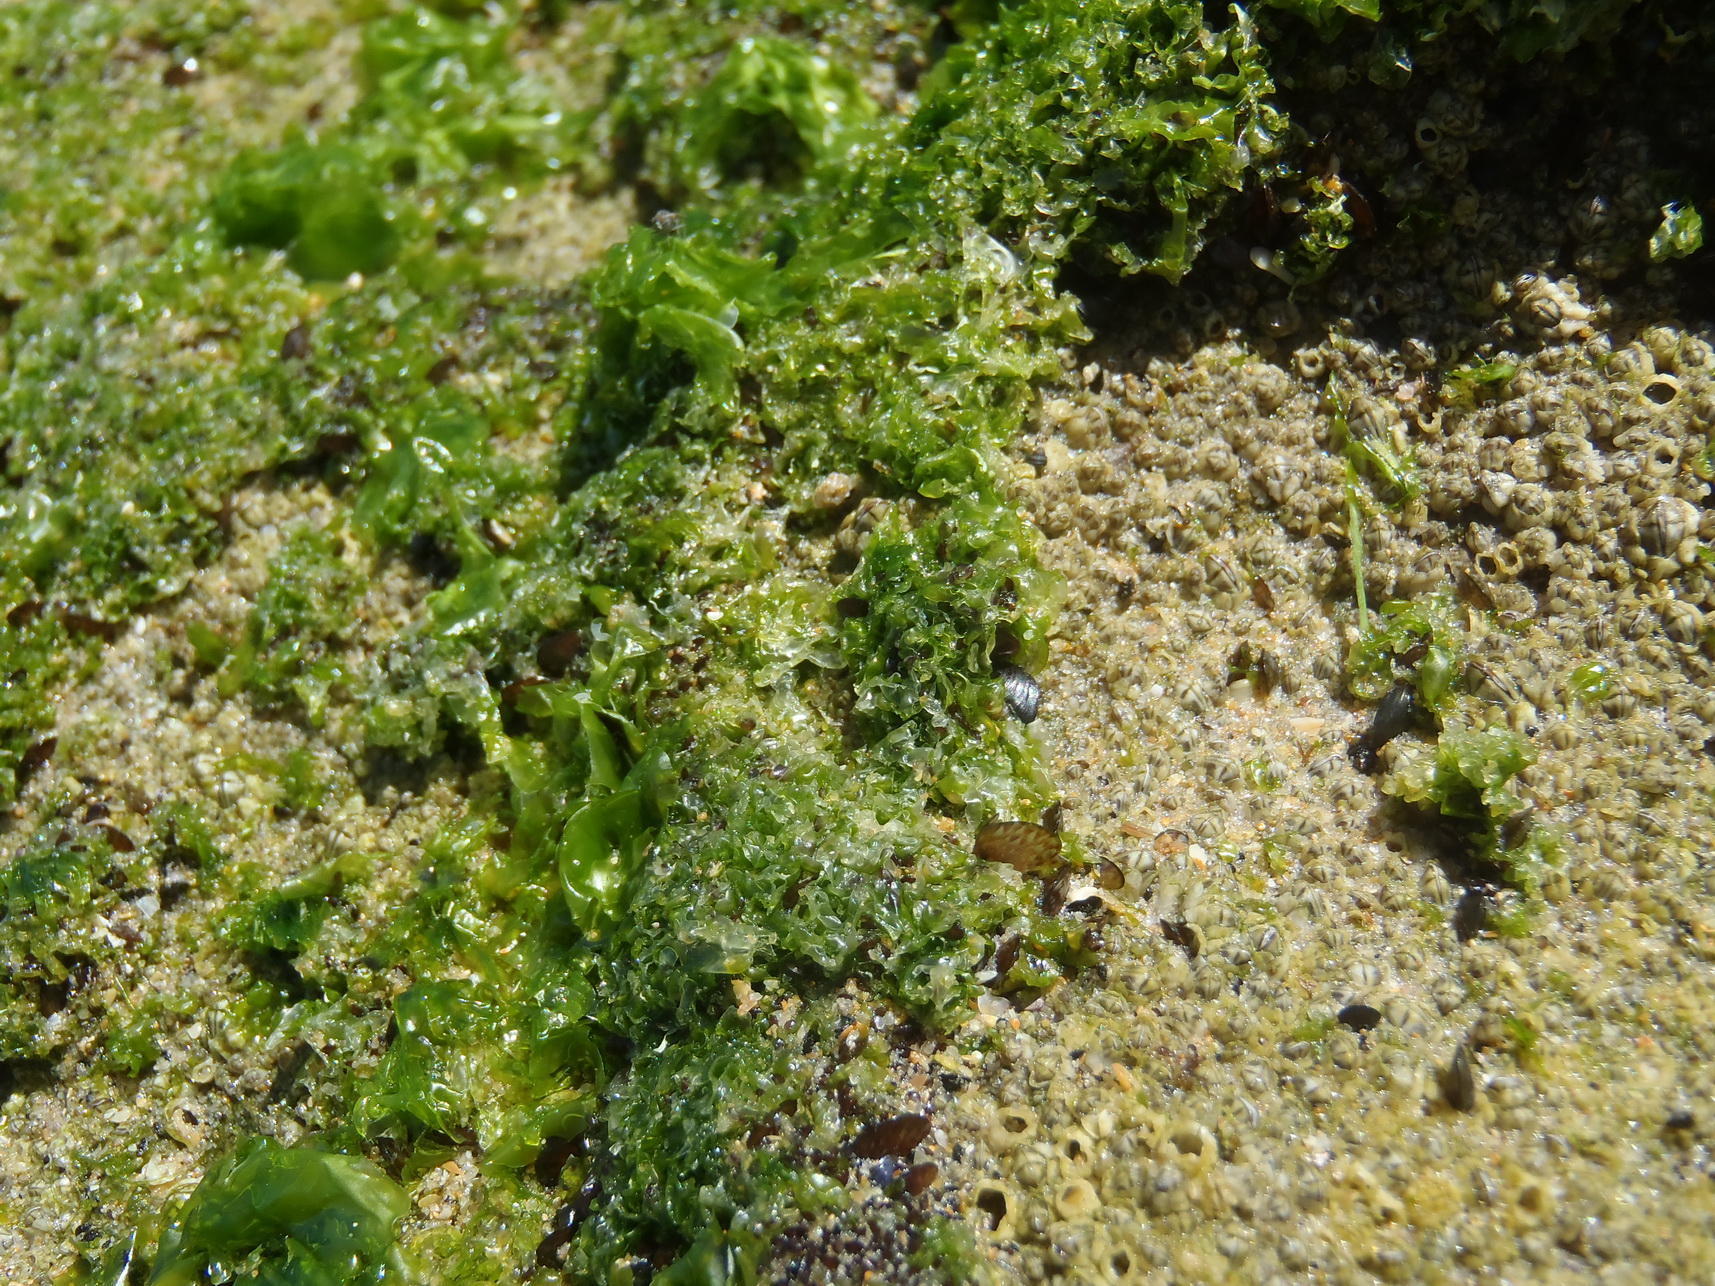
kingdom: Plantae
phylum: Chlorophyta
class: Ulvophyceae
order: Ulvales
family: Ulvaceae
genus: Ulva
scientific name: Ulva rigida
